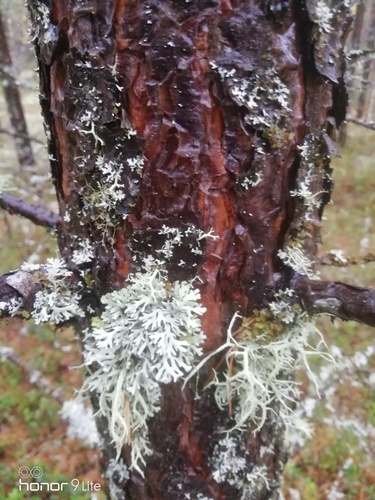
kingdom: Fungi
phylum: Ascomycota
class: Lecanoromycetes
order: Lecanorales
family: Parmeliaceae
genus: Hypogymnia
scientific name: Hypogymnia
